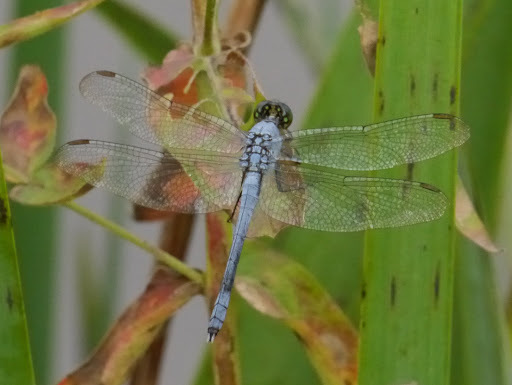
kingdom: Animalia
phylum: Arthropoda
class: Insecta
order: Odonata
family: Libellulidae
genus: Erythemis
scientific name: Erythemis simplicicollis
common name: Eastern pondhawk
